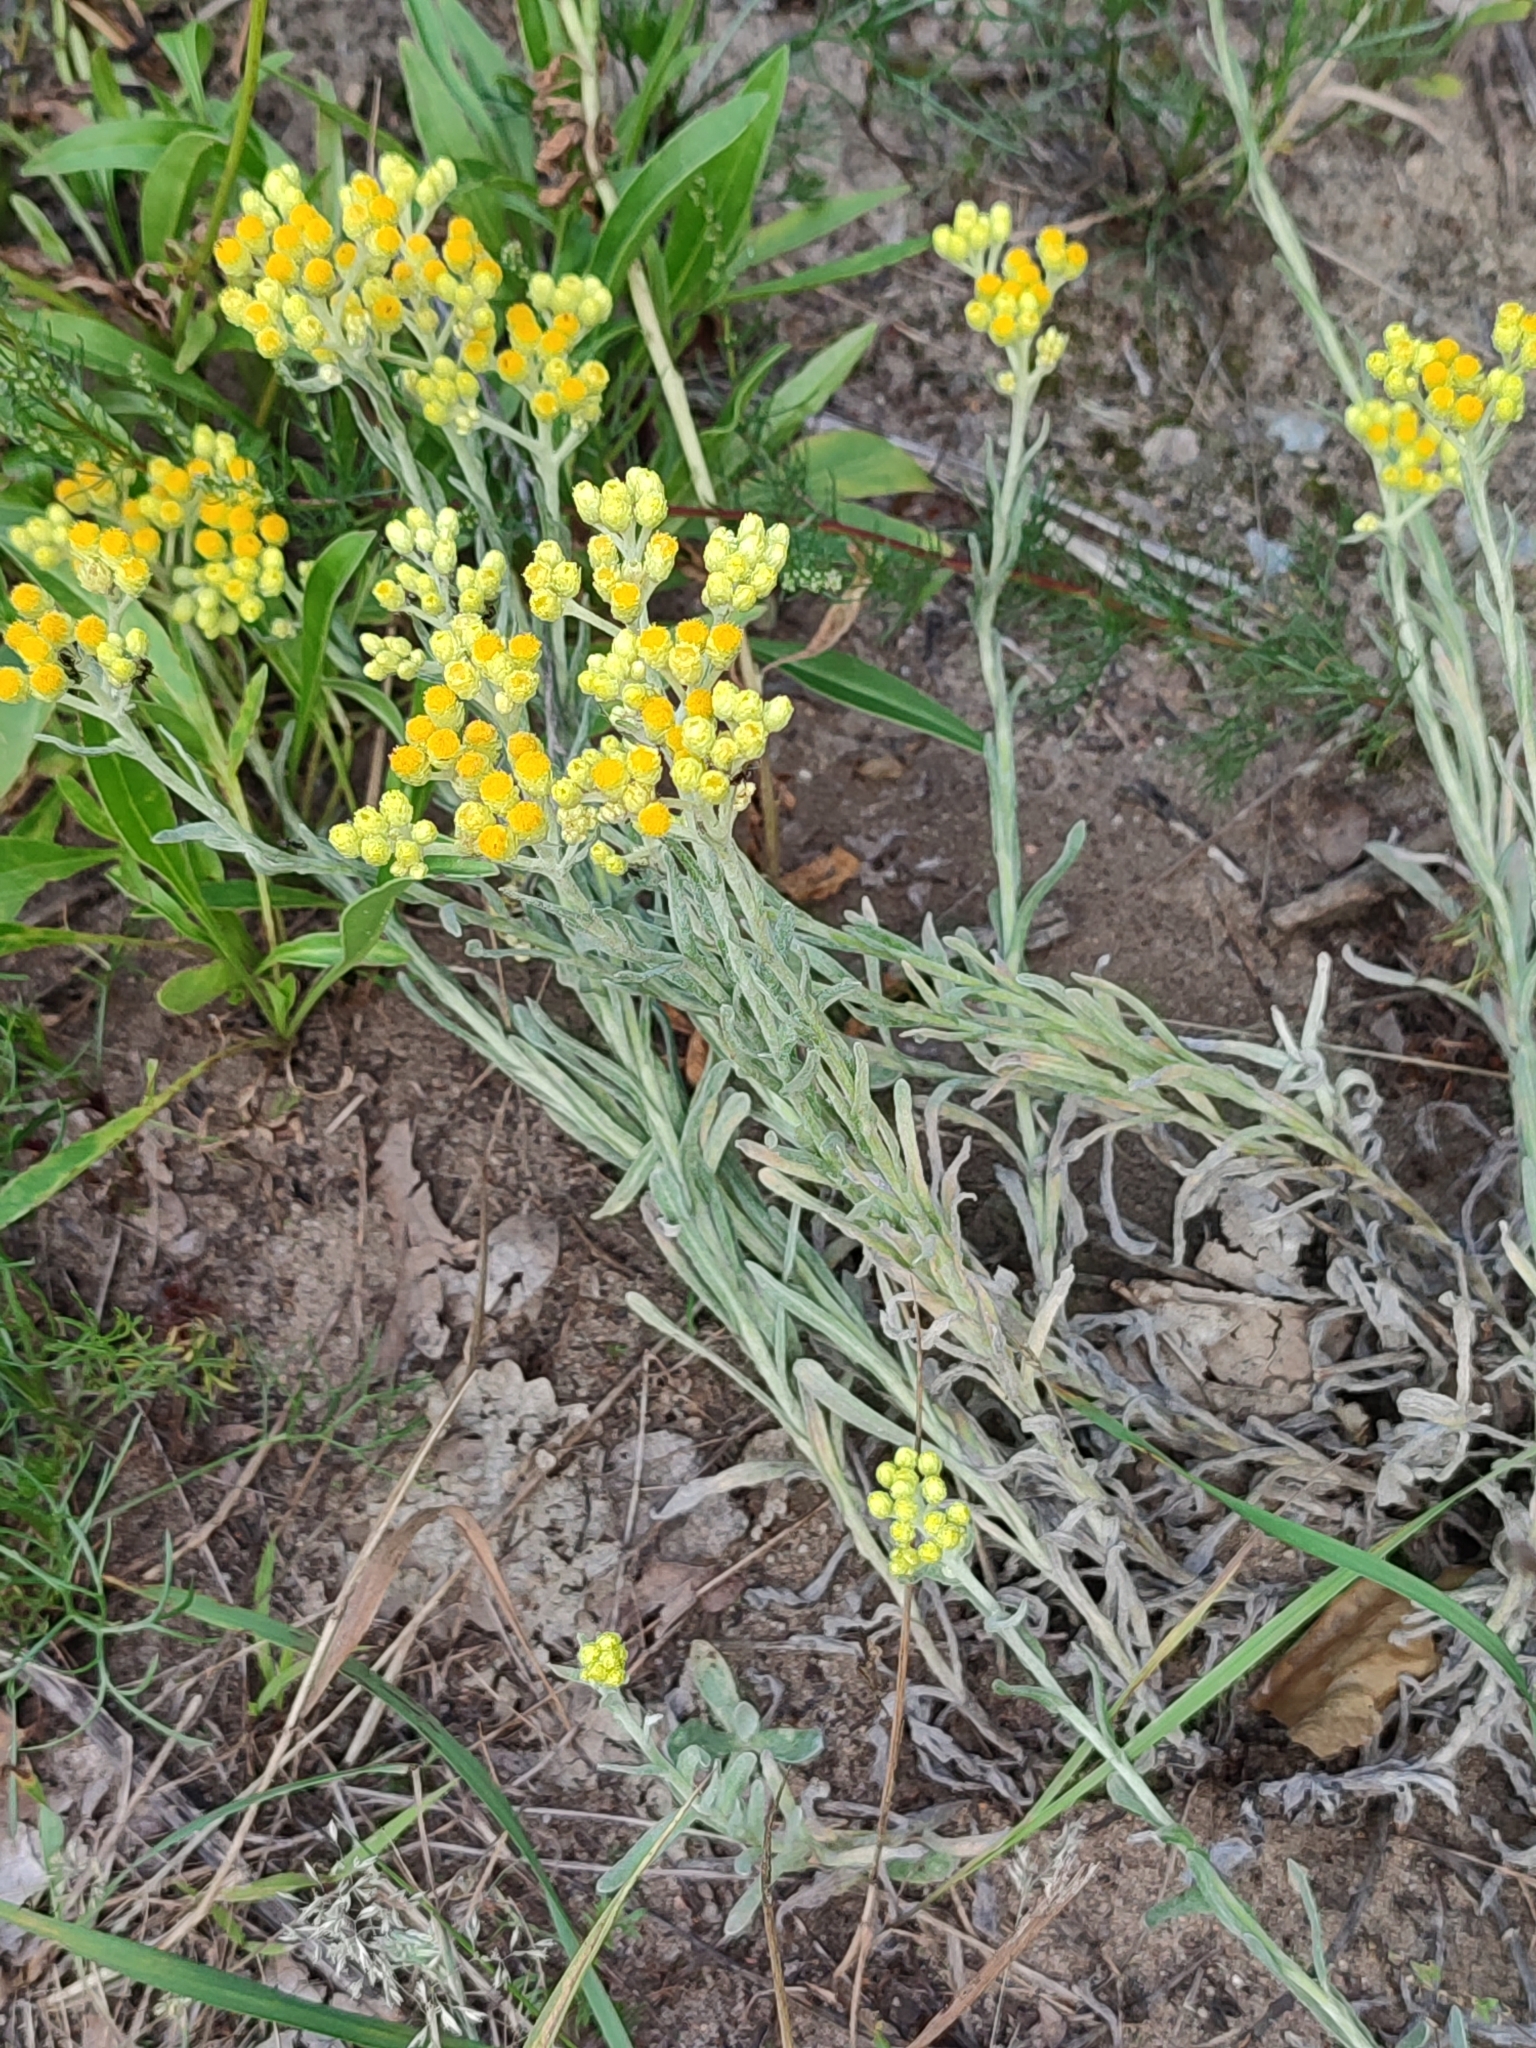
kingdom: Plantae
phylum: Tracheophyta
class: Magnoliopsida
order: Asterales
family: Asteraceae
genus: Helichrysum
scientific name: Helichrysum arenarium
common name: Strawflower
